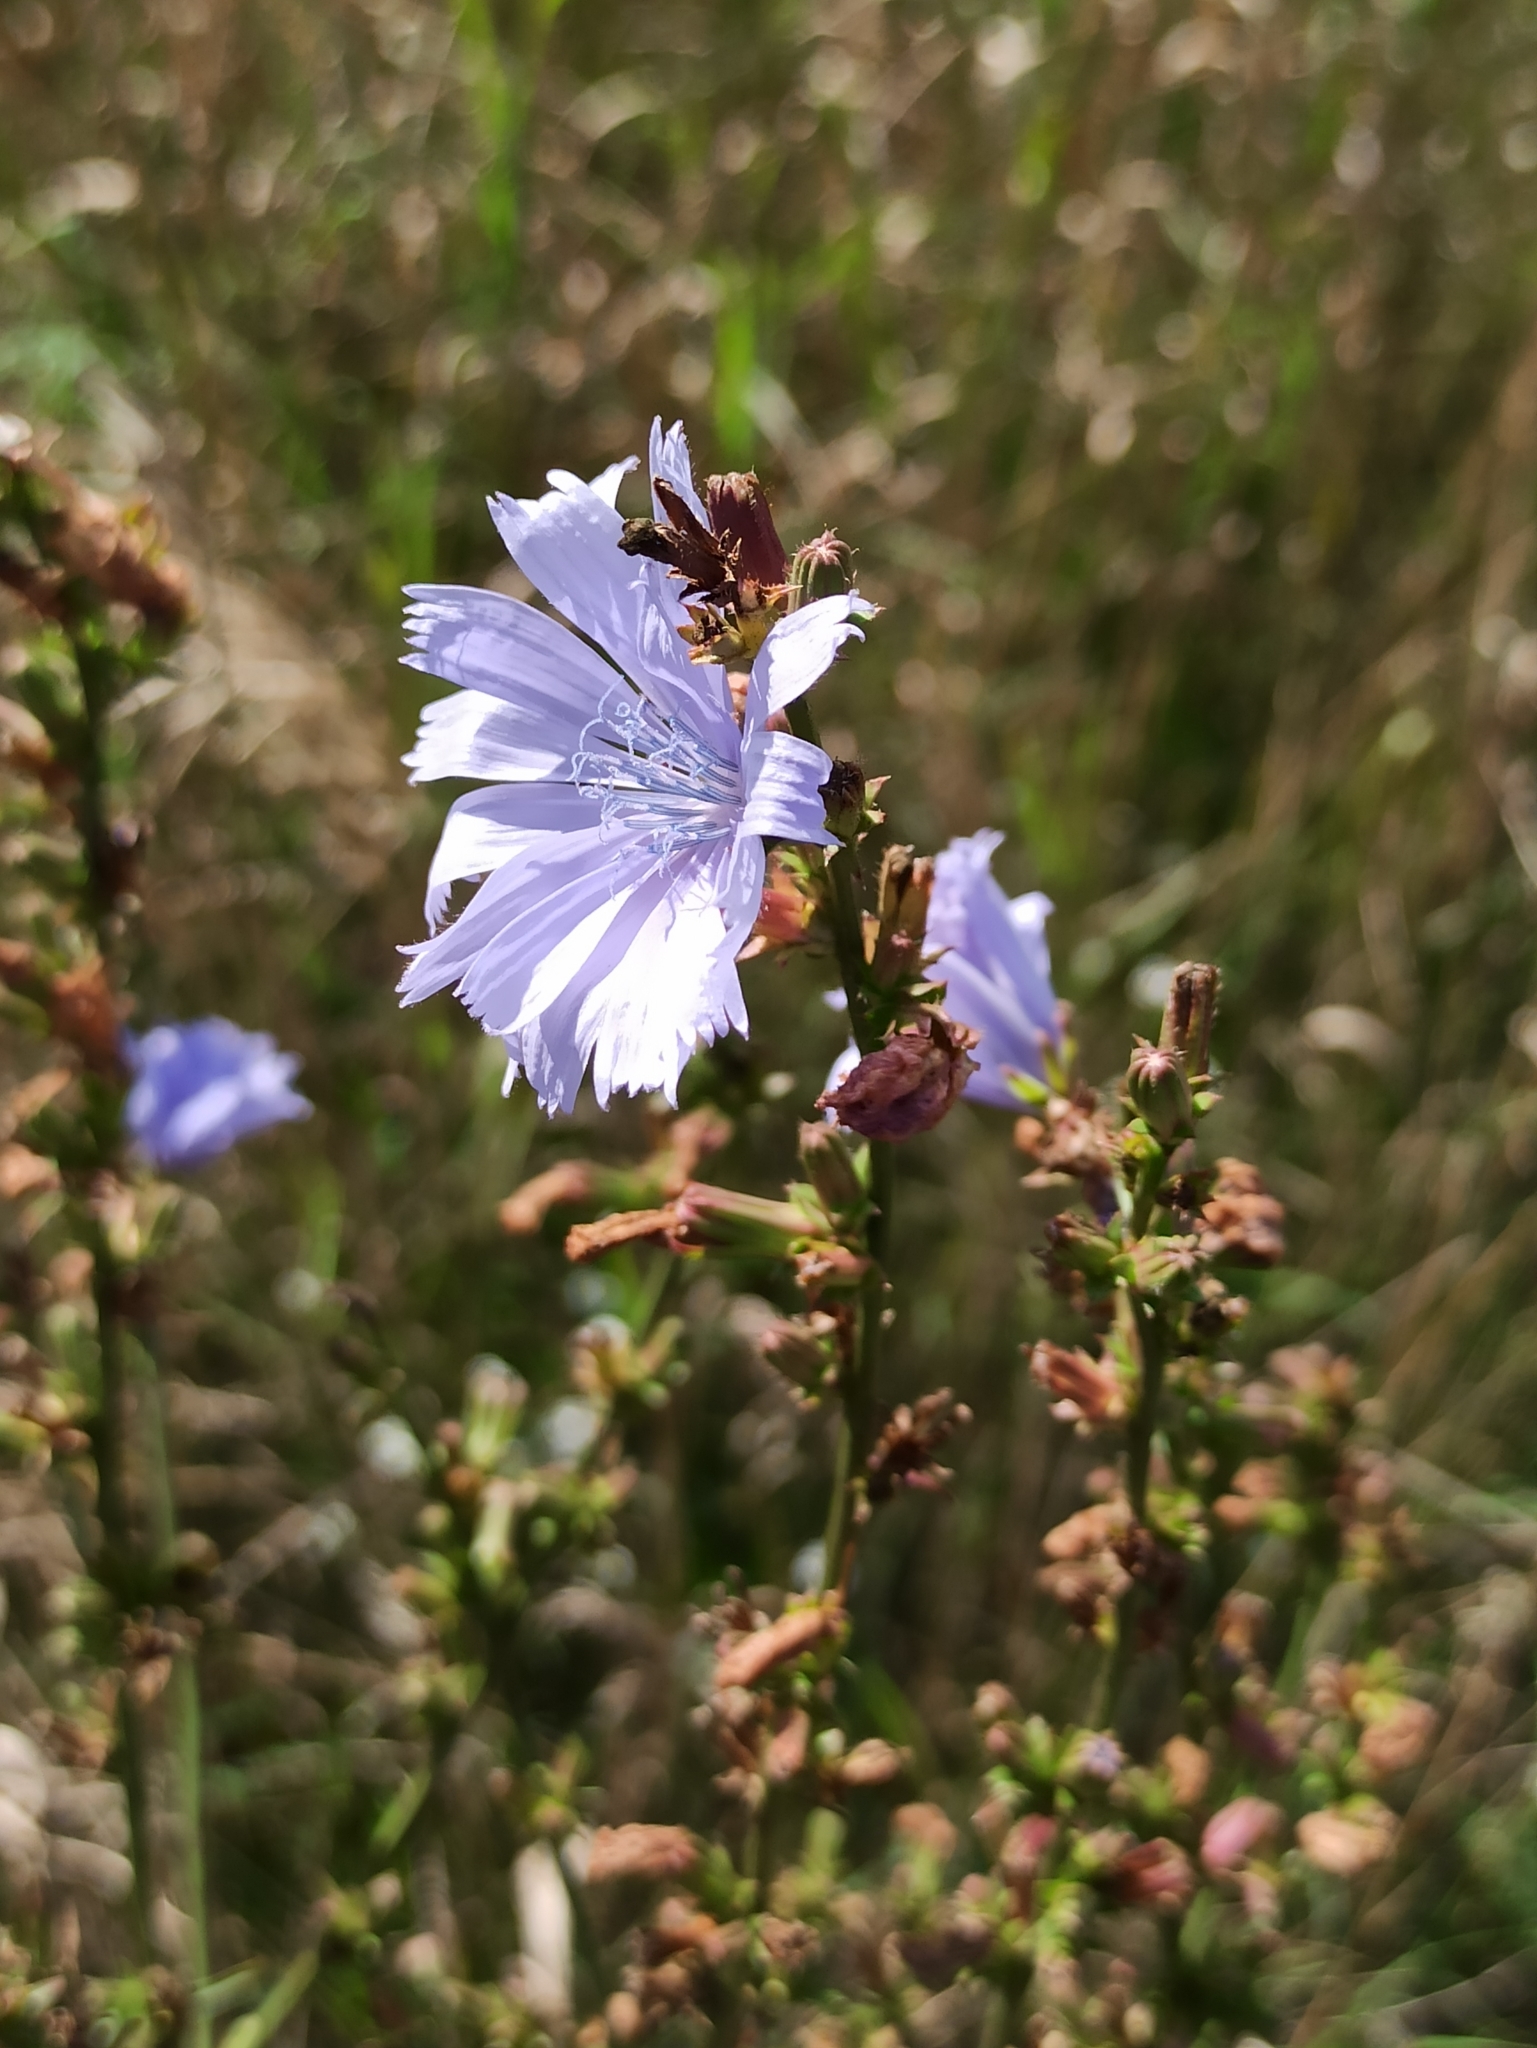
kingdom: Plantae
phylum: Tracheophyta
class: Magnoliopsida
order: Asterales
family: Asteraceae
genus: Cichorium
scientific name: Cichorium intybus
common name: Chicory
